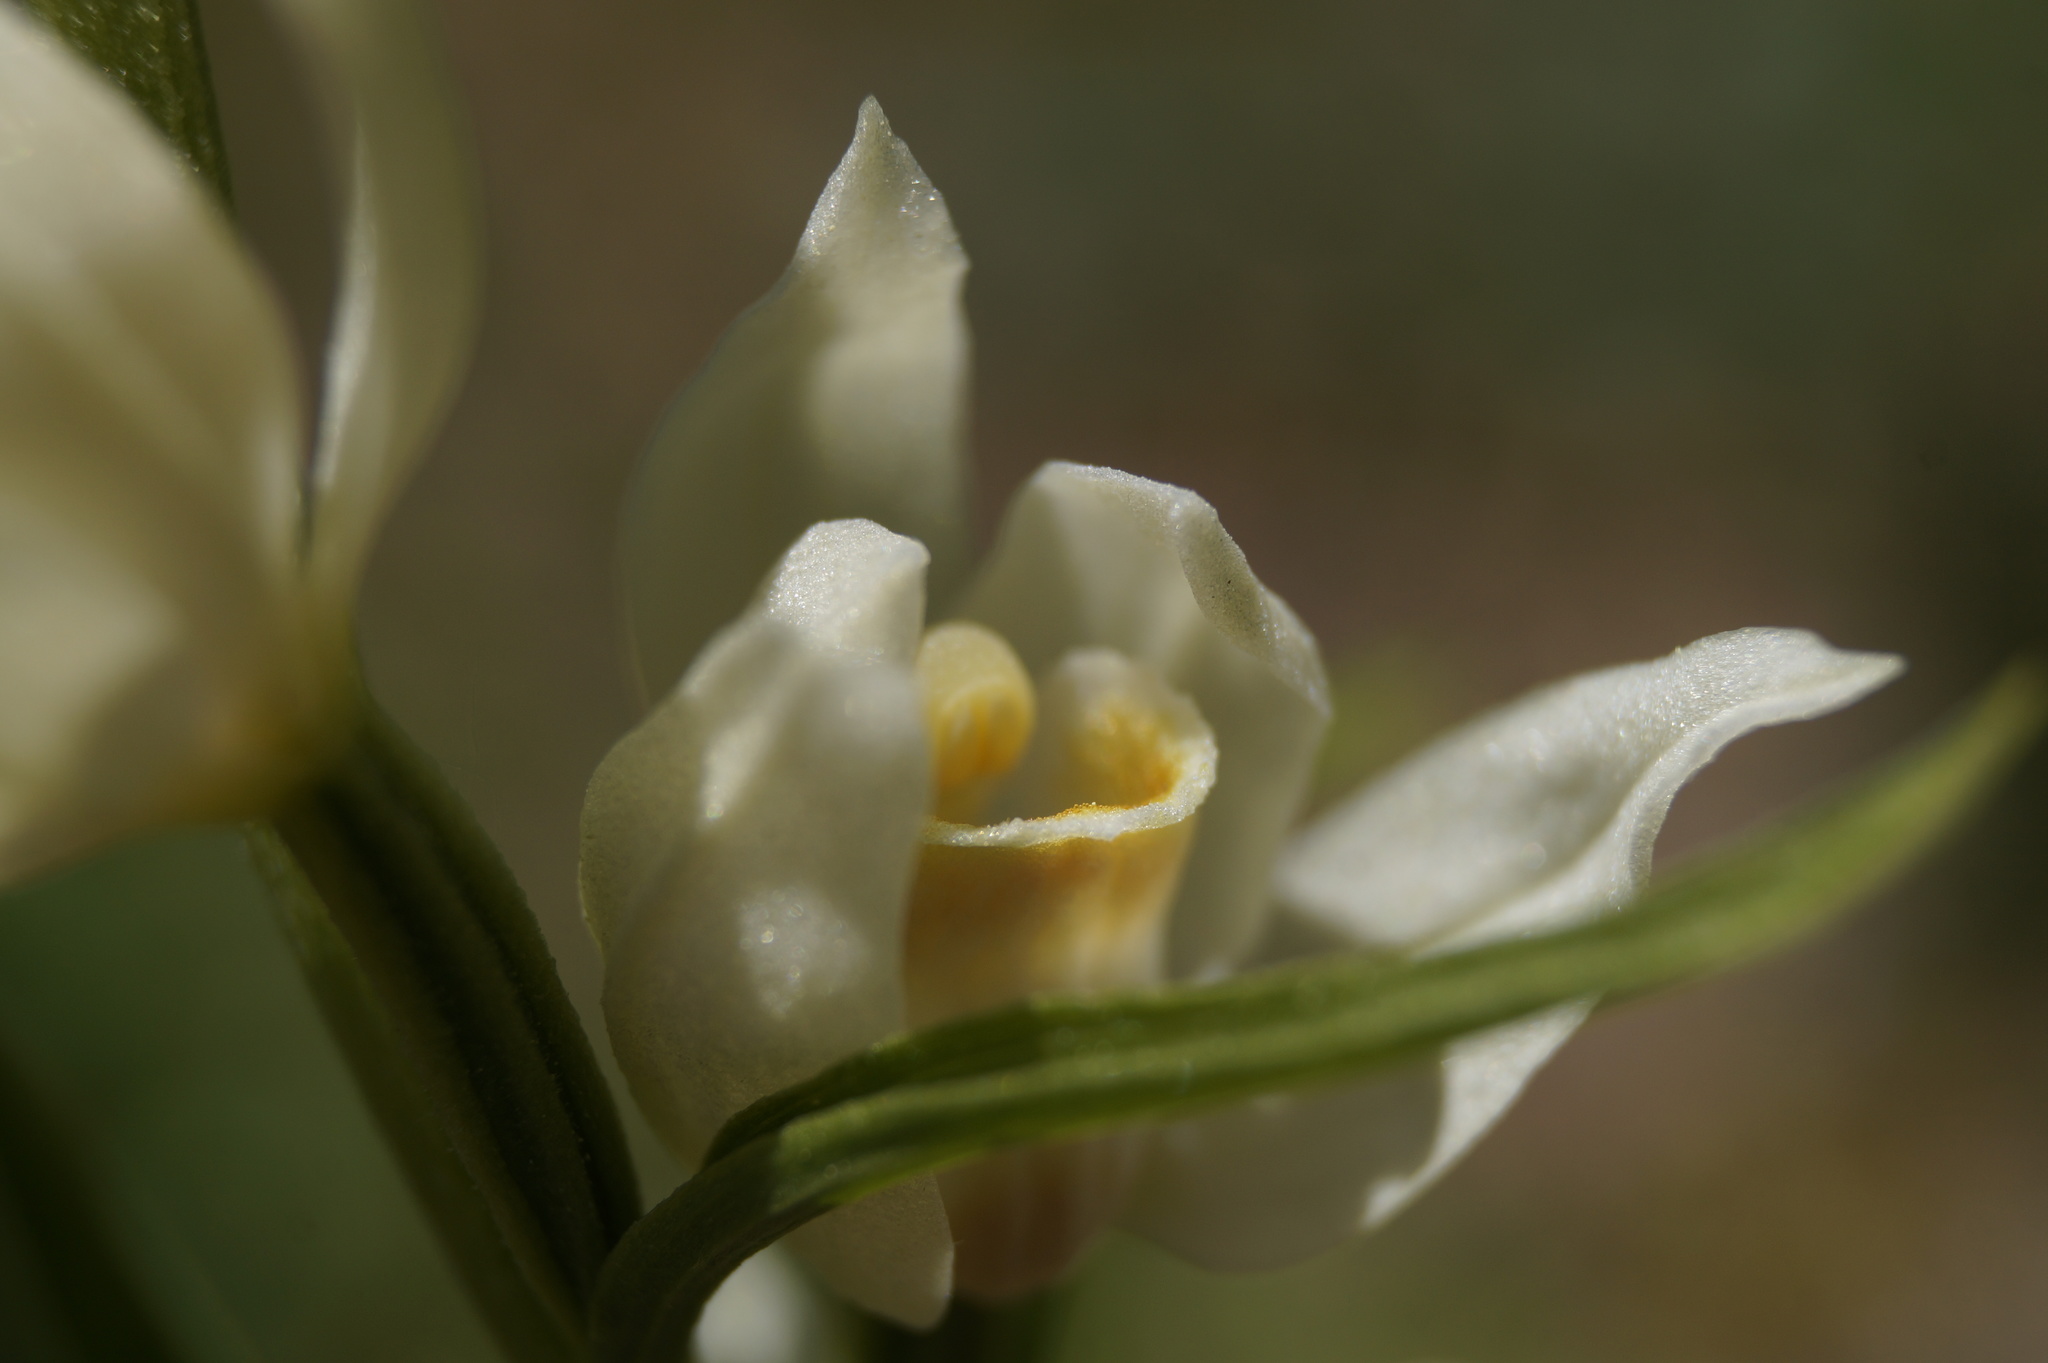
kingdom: Plantae
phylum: Tracheophyta
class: Liliopsida
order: Asparagales
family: Orchidaceae
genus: Cephalanthera
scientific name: Cephalanthera damasonium
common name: White helleborine
